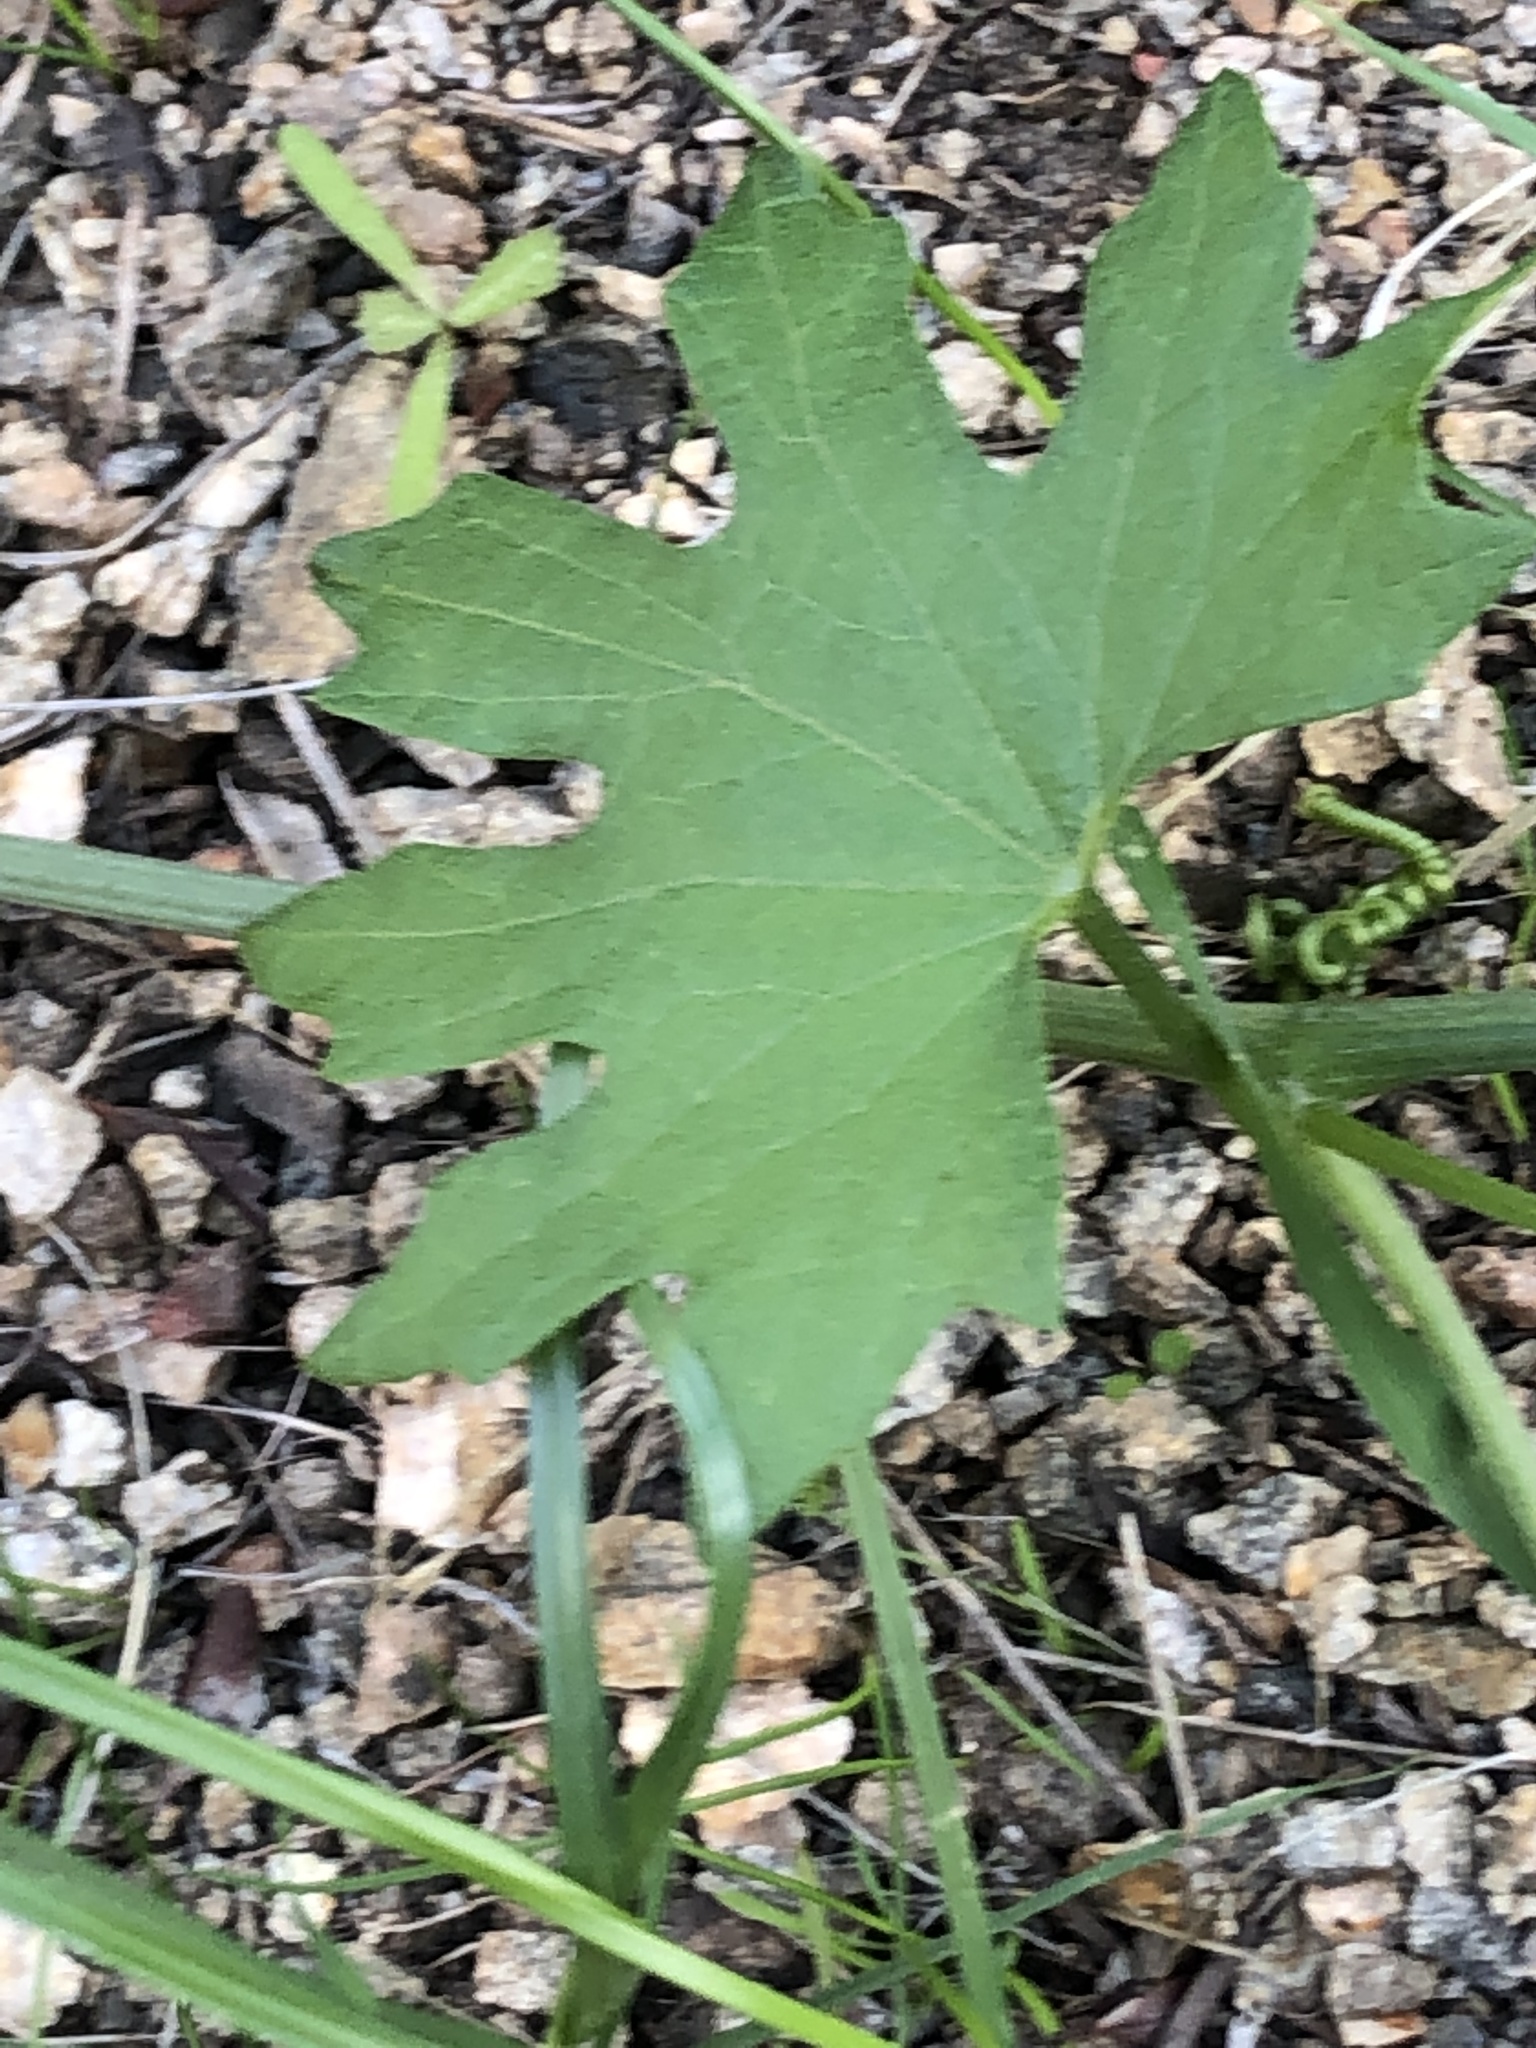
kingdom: Plantae
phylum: Tracheophyta
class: Magnoliopsida
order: Cucurbitales
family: Cucurbitaceae
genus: Marah
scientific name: Marah macrocarpa
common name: Cucamonga manroot
